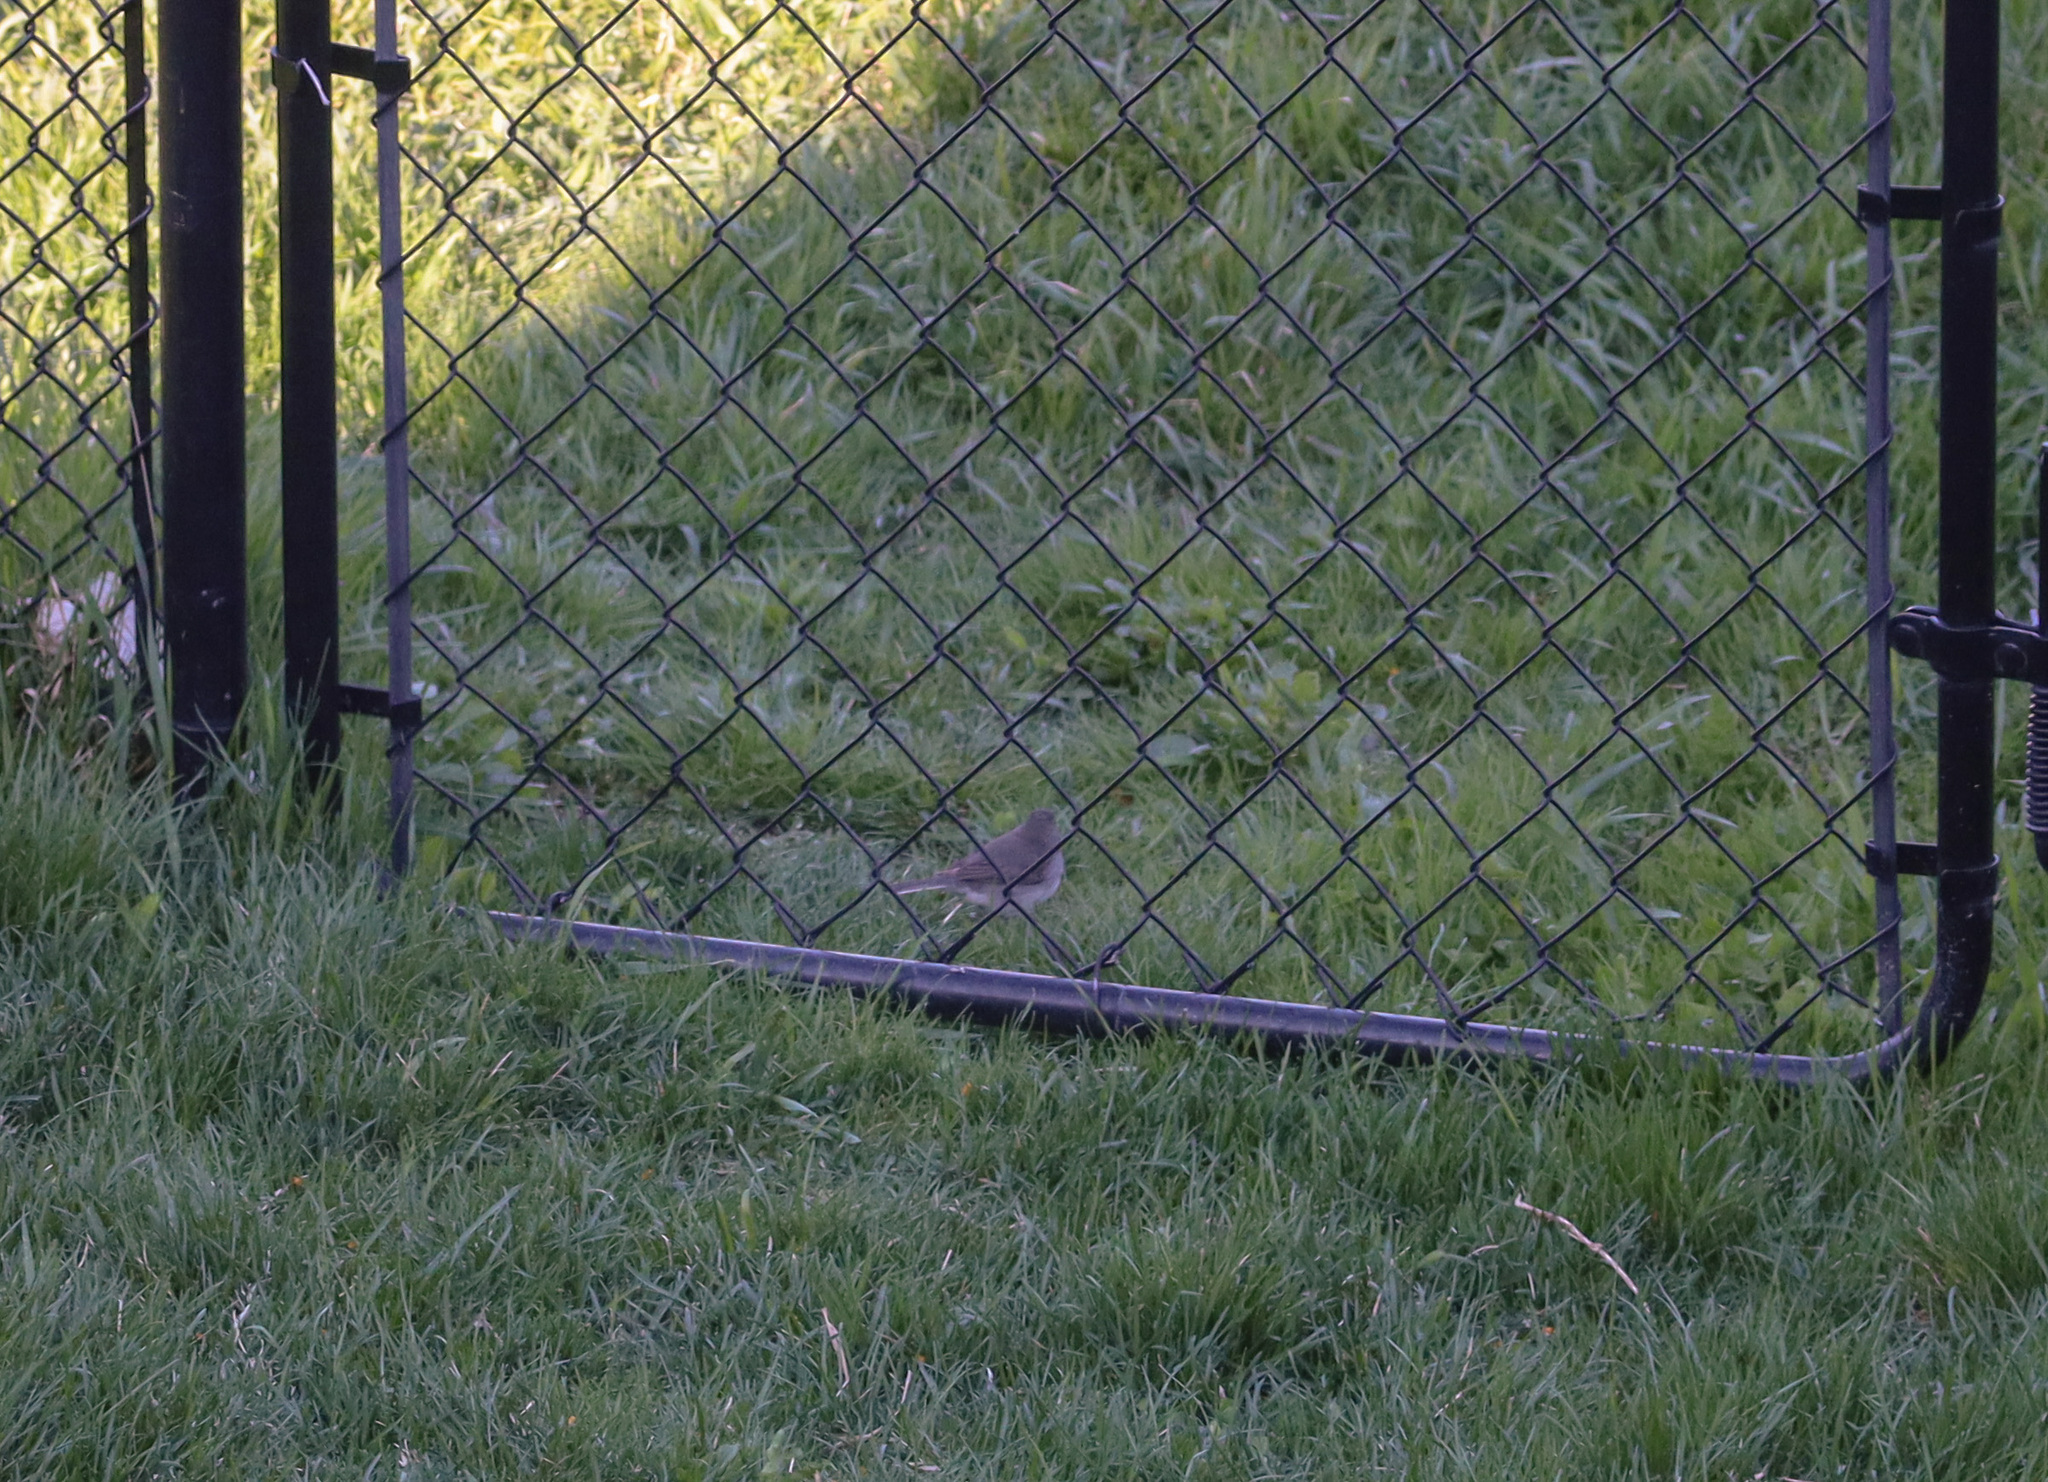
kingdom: Animalia
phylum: Chordata
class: Aves
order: Passeriformes
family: Passerellidae
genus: Junco
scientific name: Junco hyemalis
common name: Dark-eyed junco
